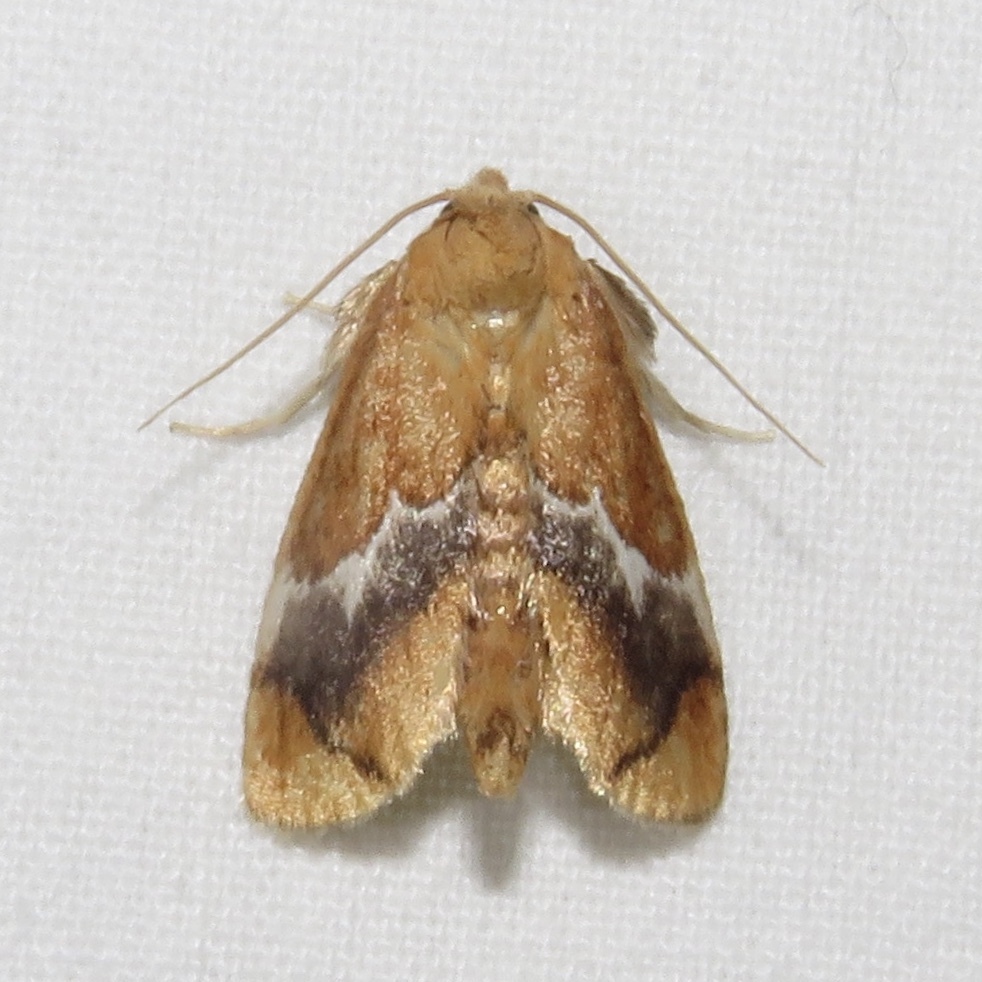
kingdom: Animalia
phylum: Arthropoda
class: Insecta
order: Lepidoptera
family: Limacodidae
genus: Lithacodes
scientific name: Lithacodes fasciola
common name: Yellow-shouldered slug moth
